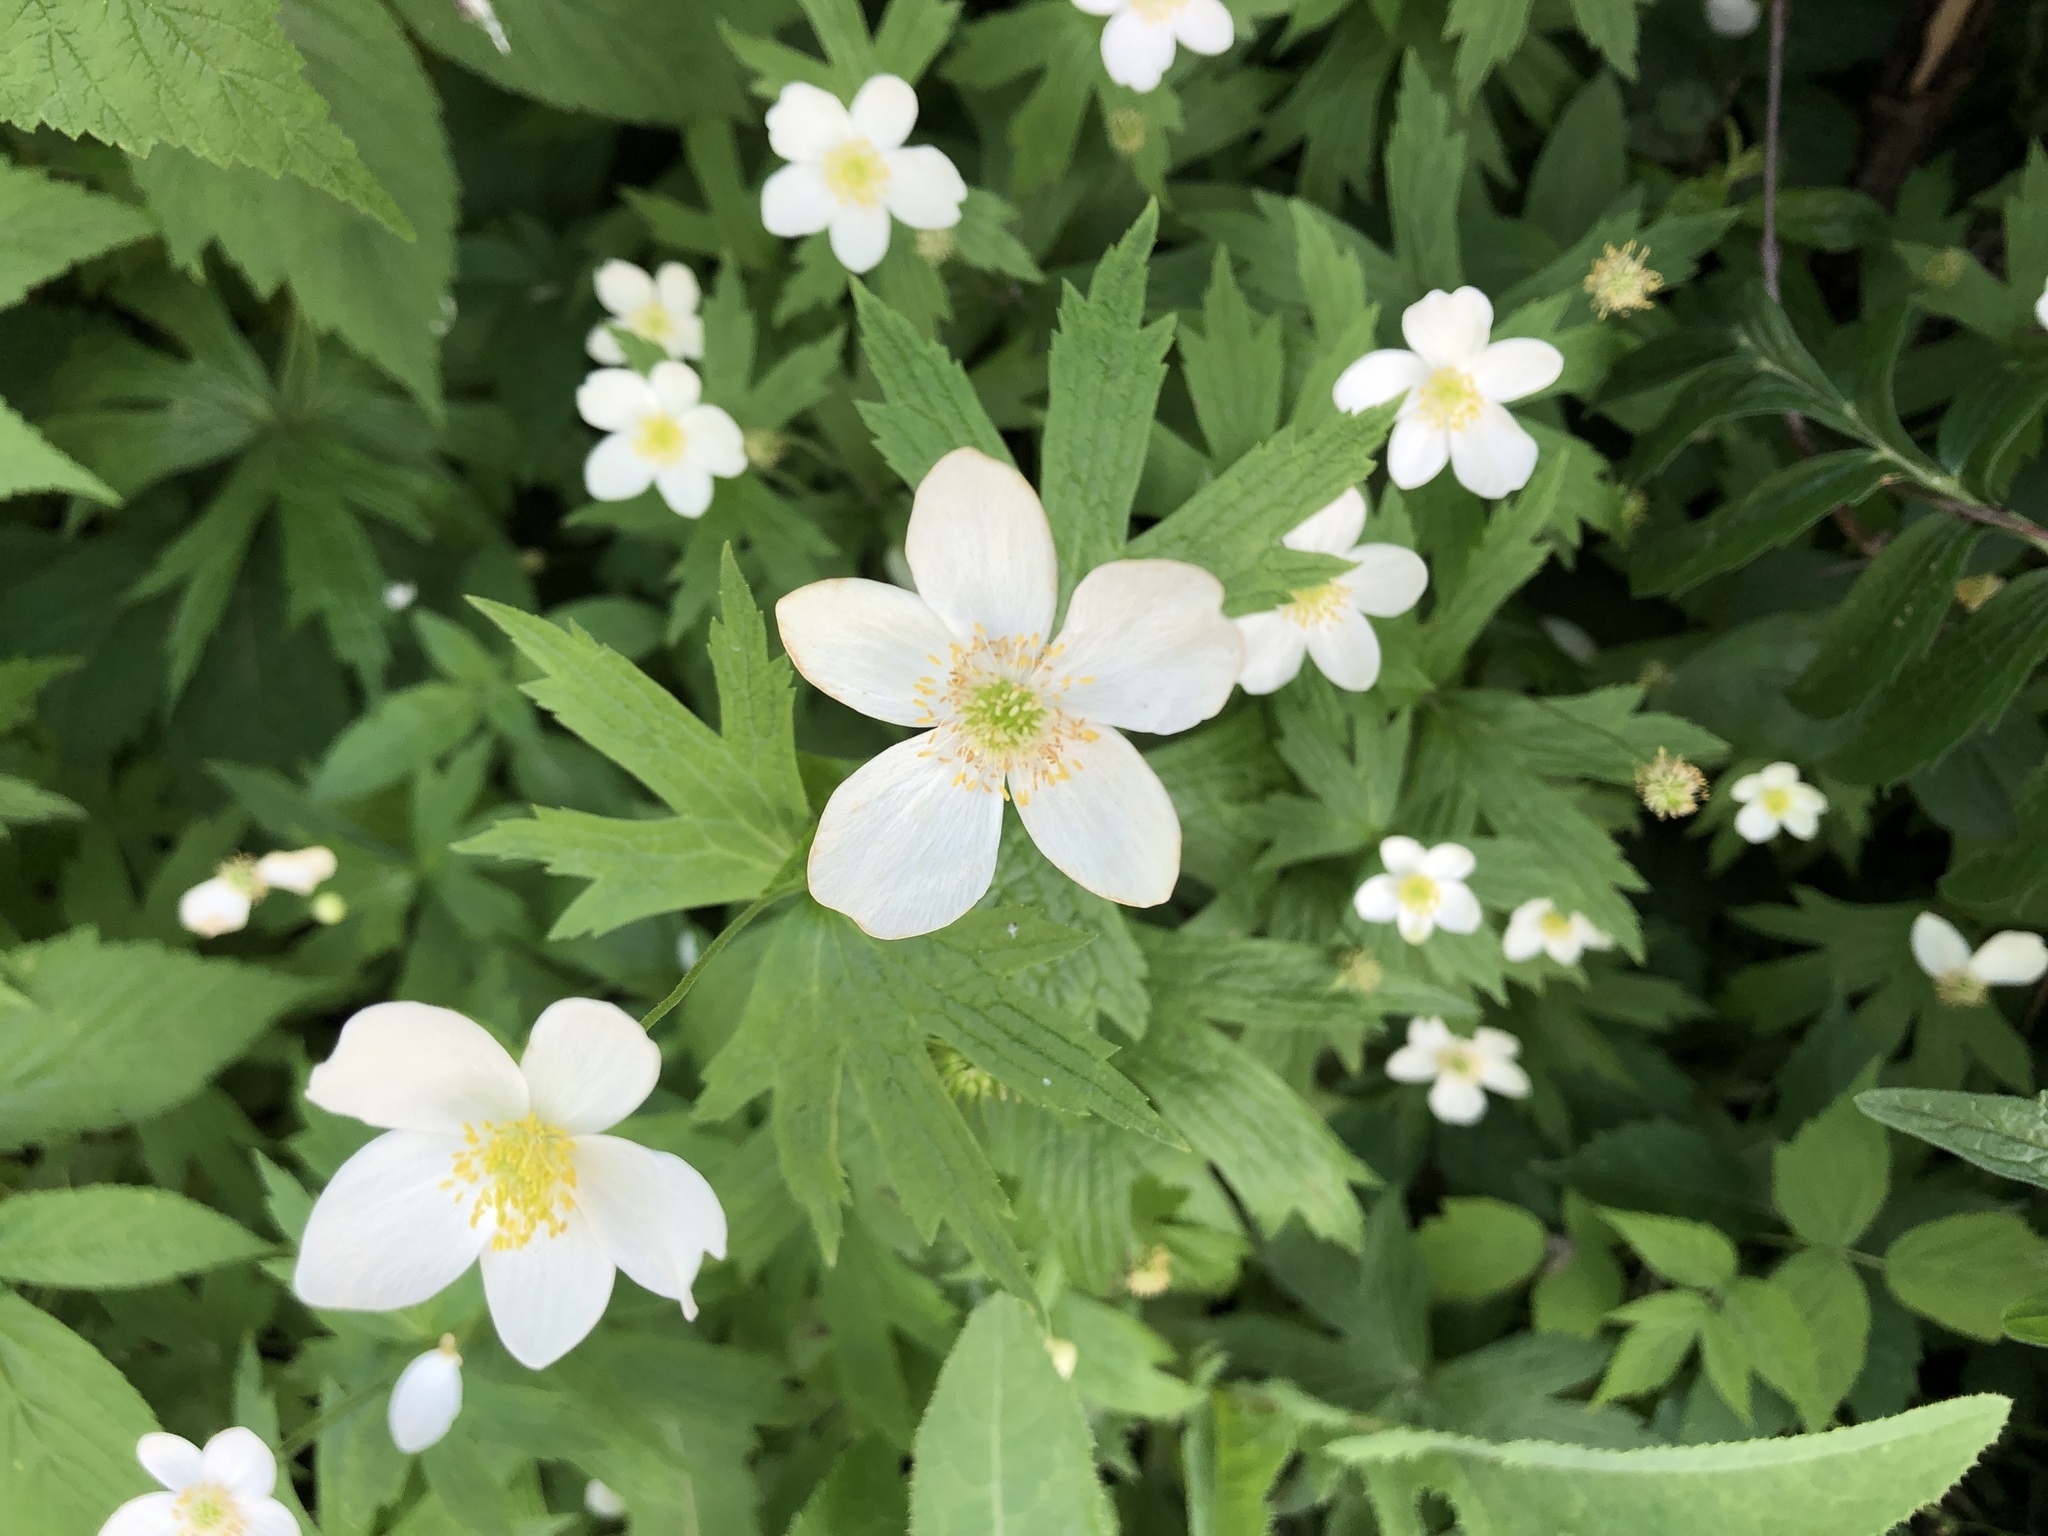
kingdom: Plantae
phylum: Tracheophyta
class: Magnoliopsida
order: Ranunculales
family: Ranunculaceae
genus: Anemonastrum
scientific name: Anemonastrum canadense
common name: Canada anemone
